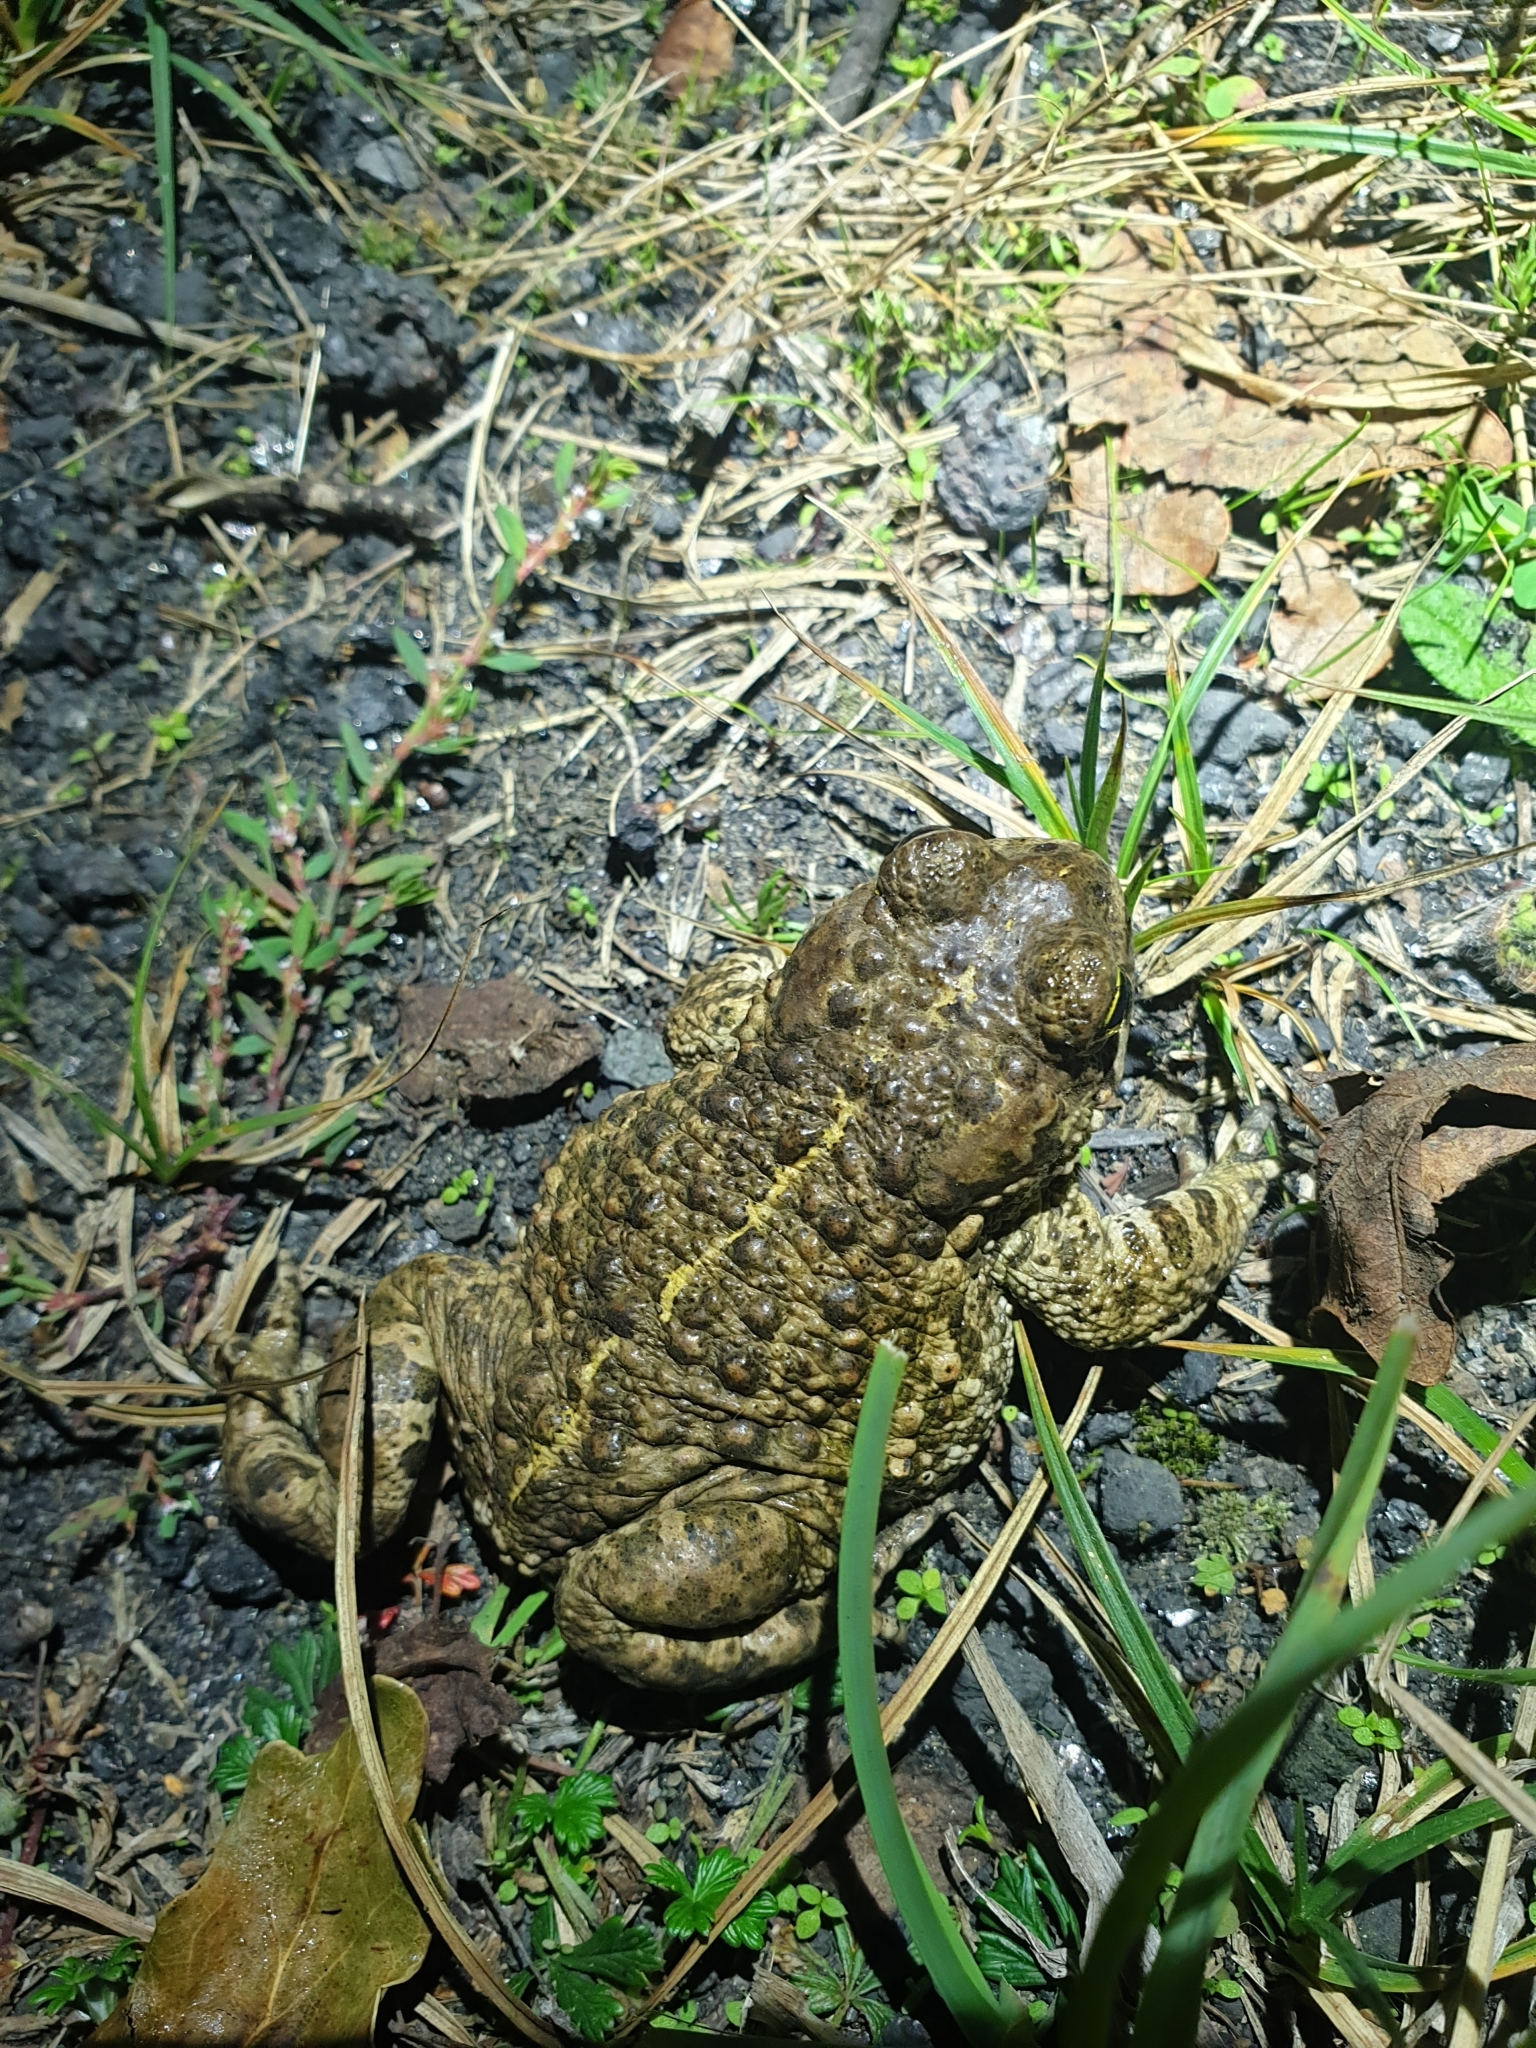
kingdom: Animalia
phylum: Chordata
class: Amphibia
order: Anura
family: Bufonidae
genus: Epidalea
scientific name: Epidalea calamita
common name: Natterjack toad
